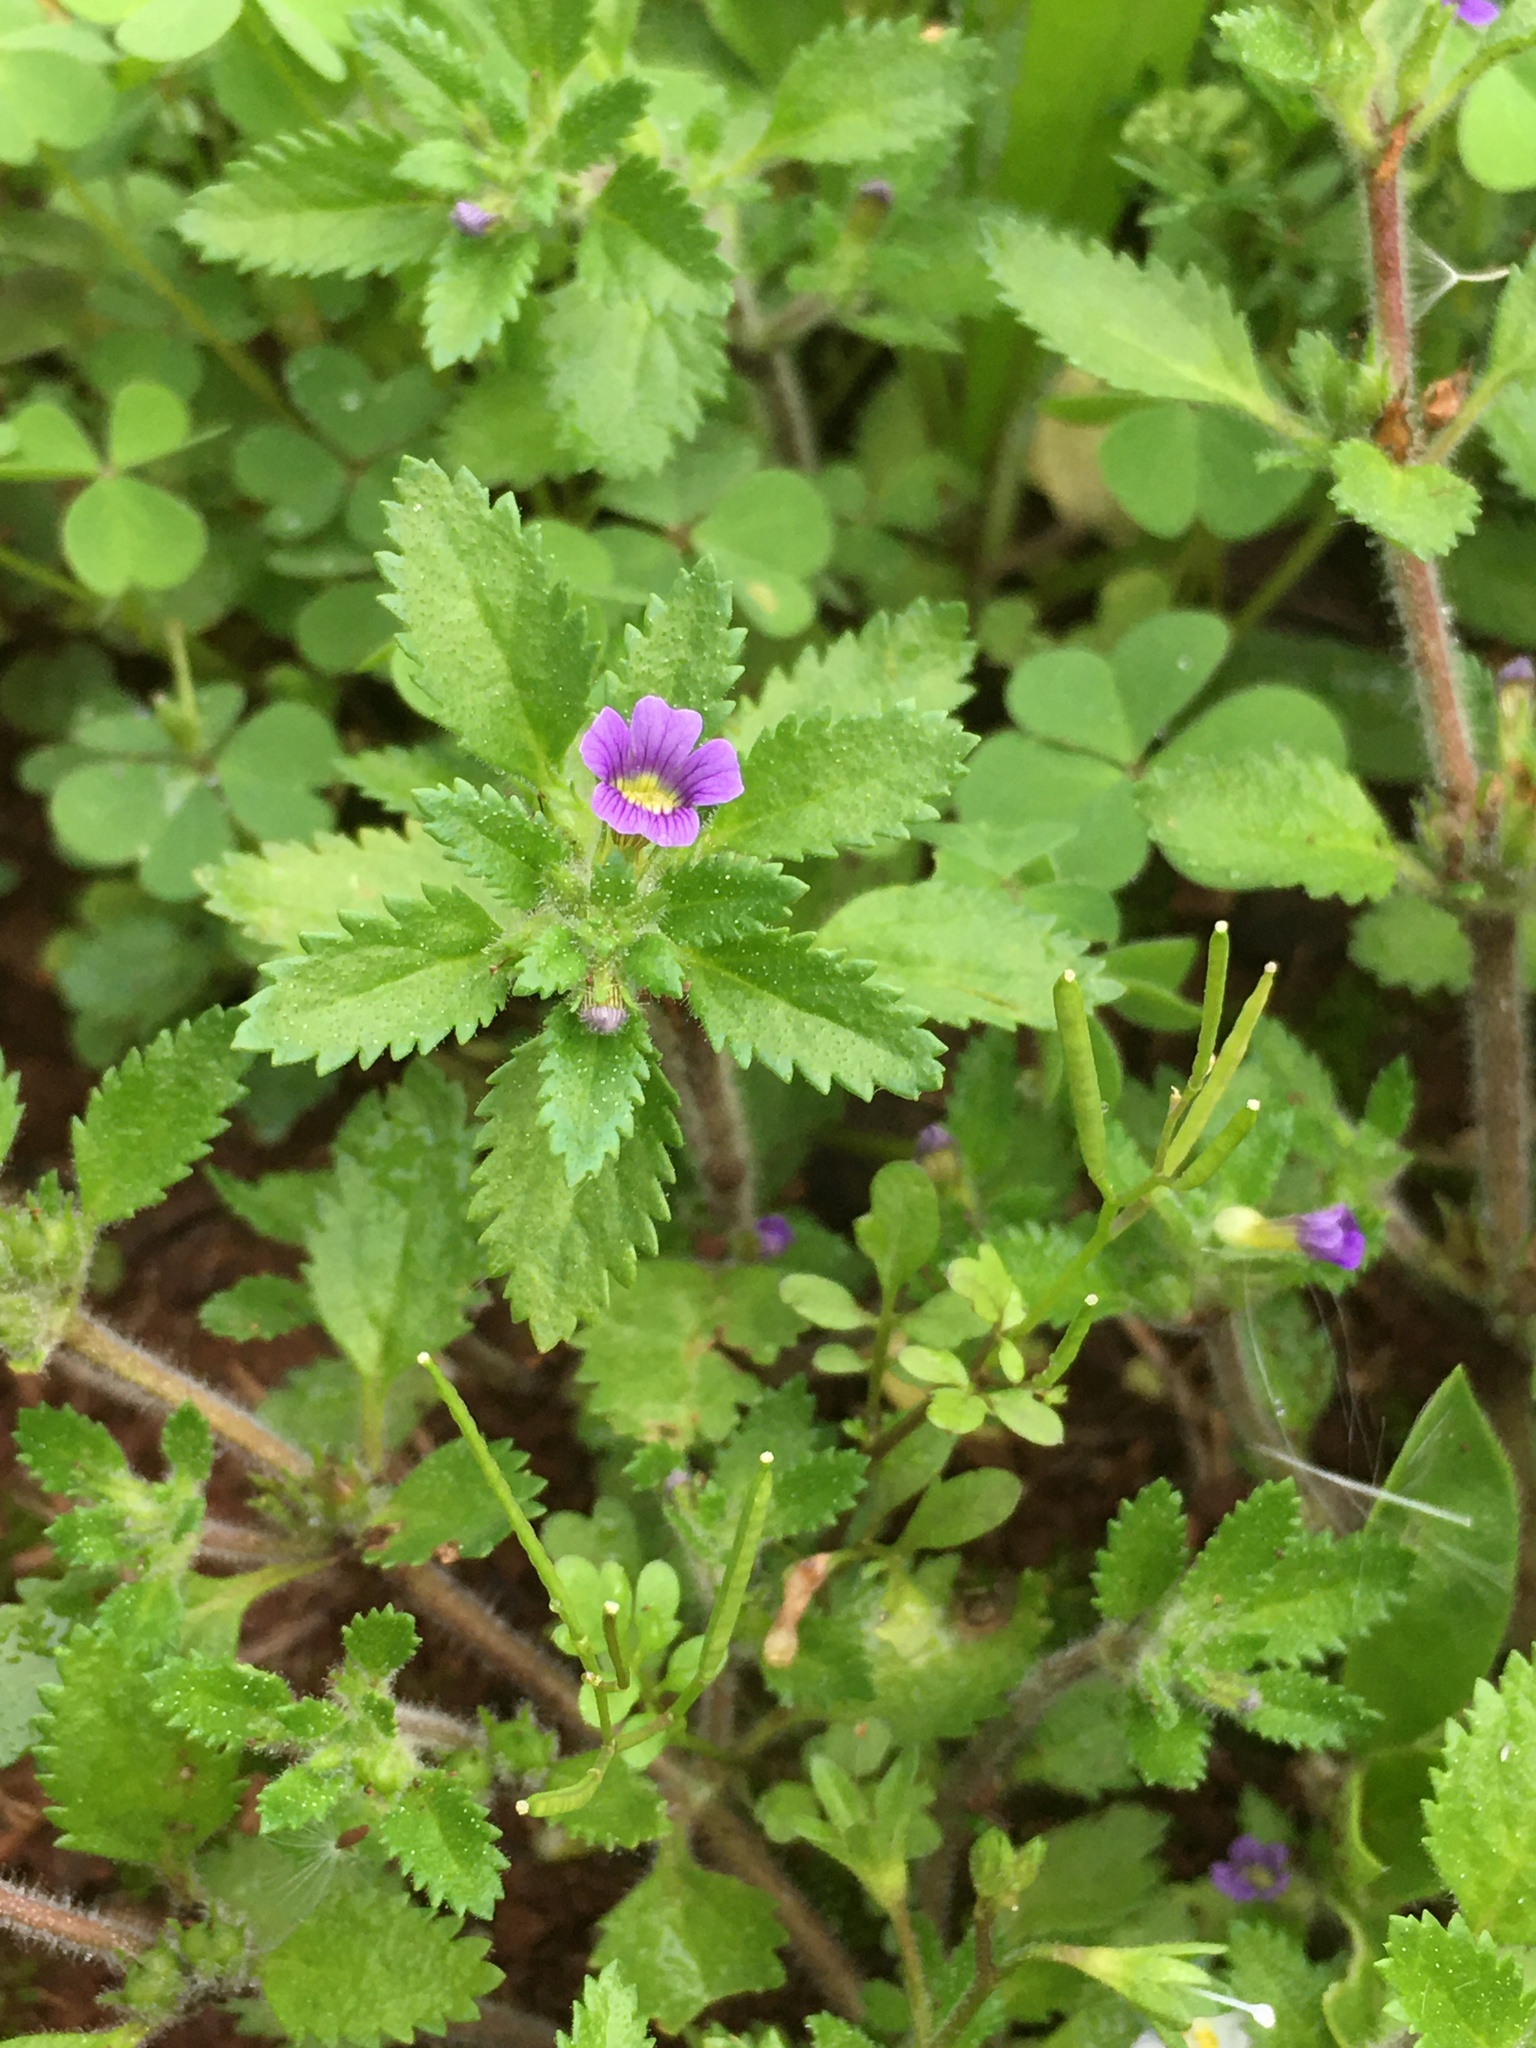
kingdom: Plantae
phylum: Tracheophyta
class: Magnoliopsida
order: Lamiales
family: Plantaginaceae
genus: Stemodia
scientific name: Stemodia verticillata
